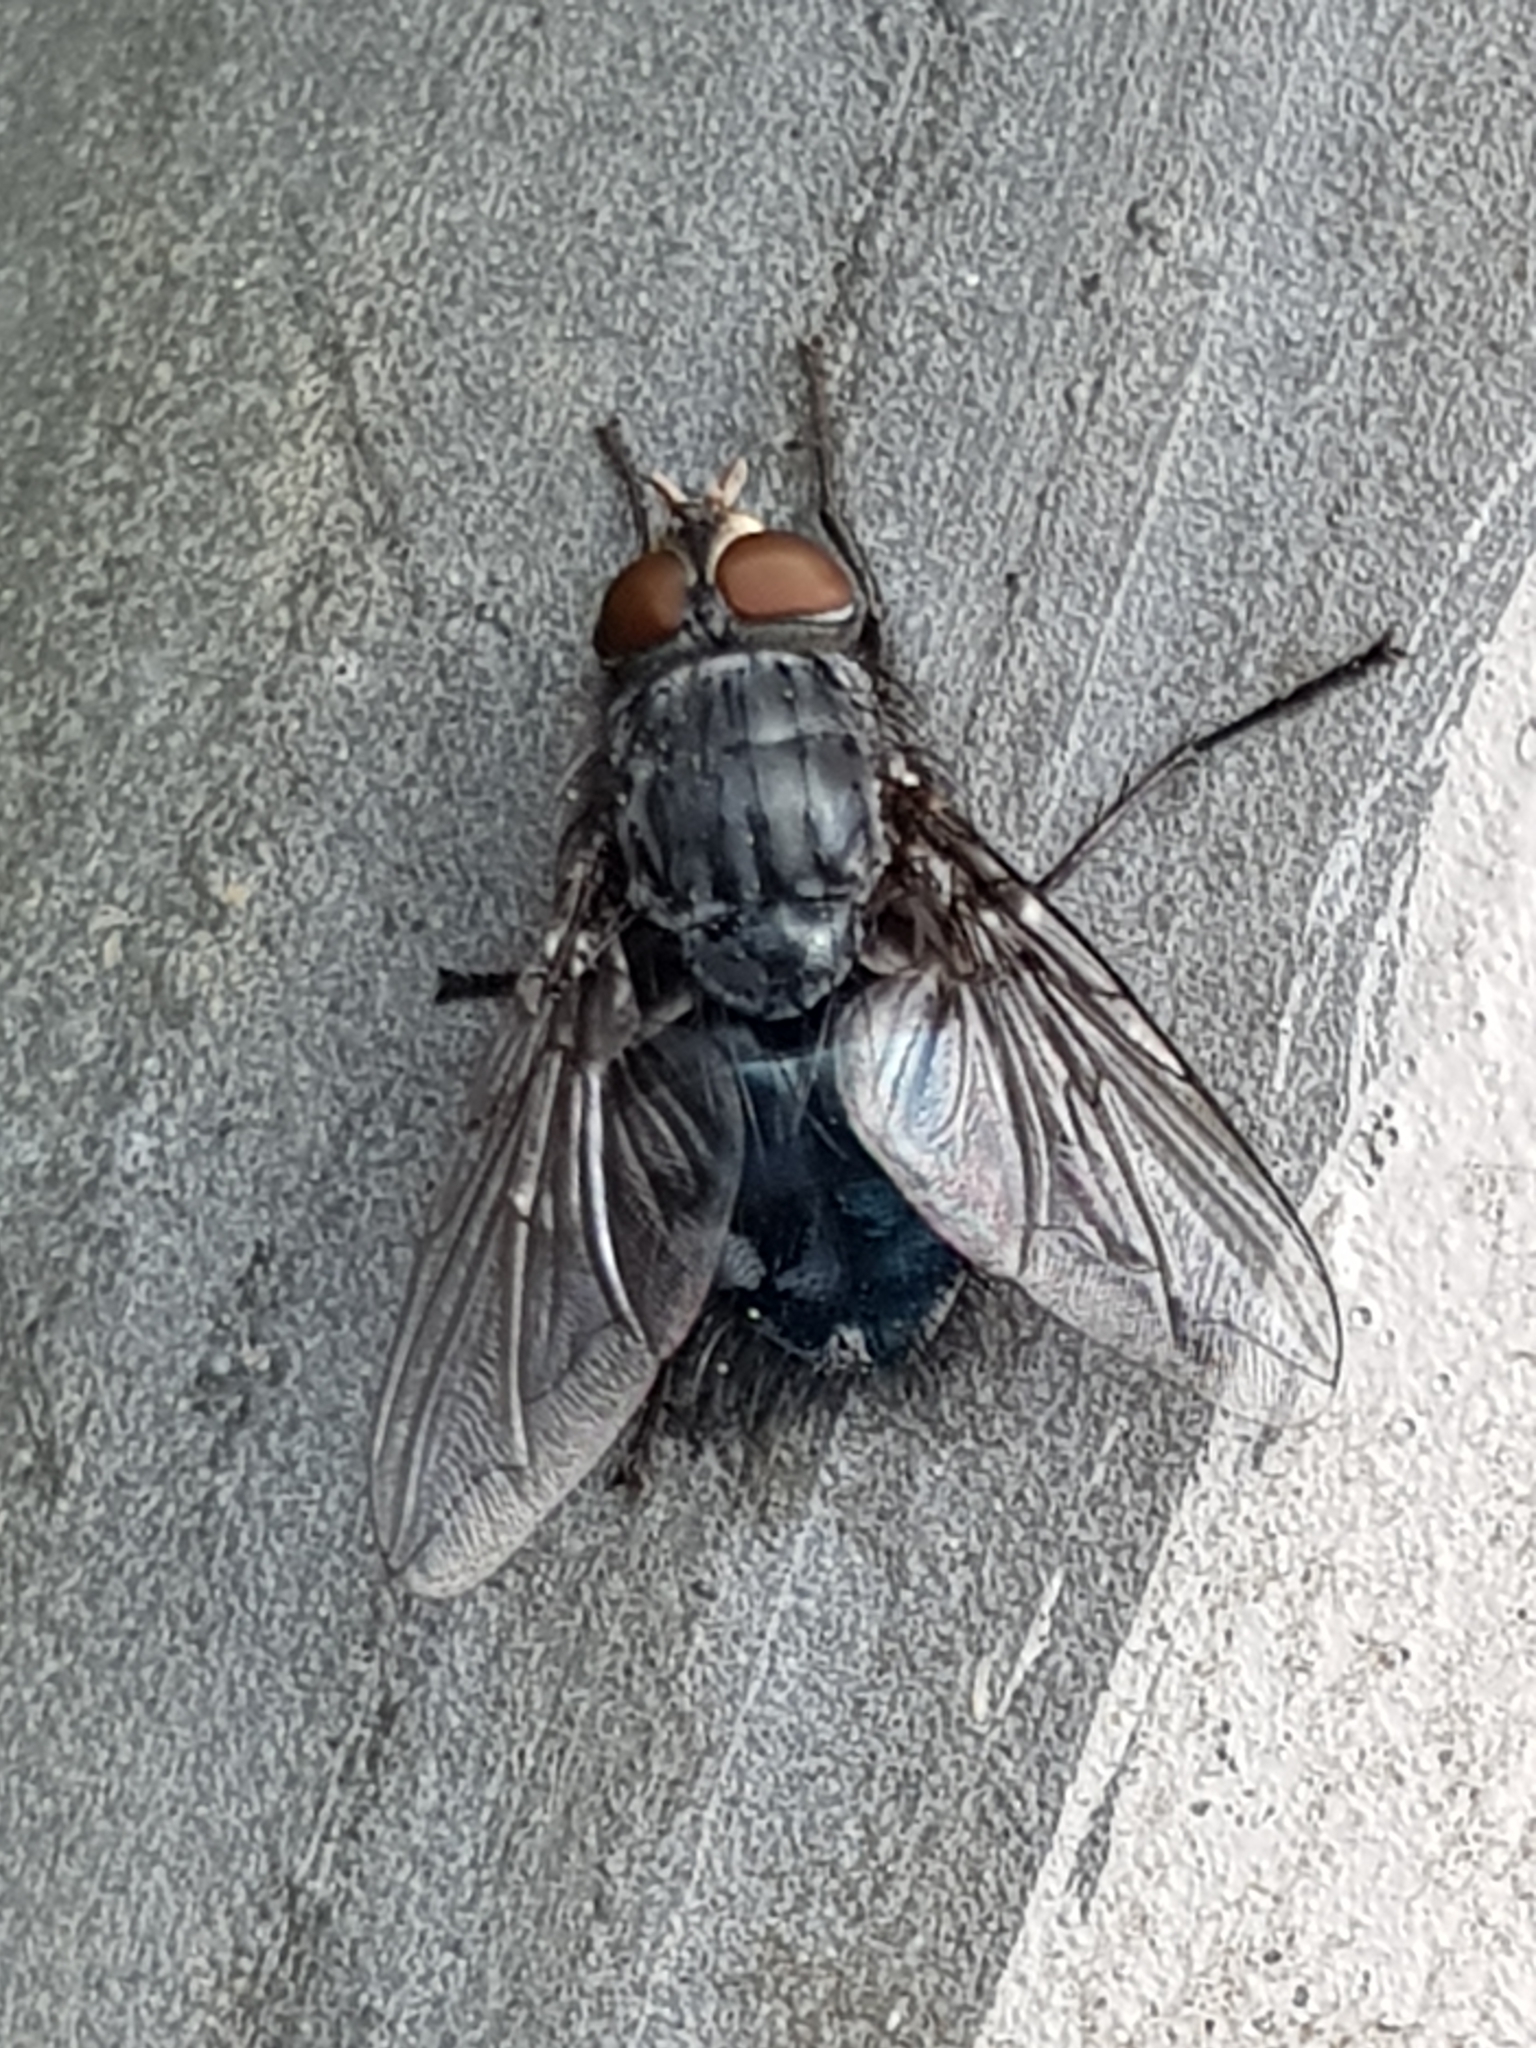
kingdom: Animalia
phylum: Arthropoda
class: Insecta
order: Diptera
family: Calliphoridae
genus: Calliphora
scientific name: Calliphora vicina
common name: Common blow flie
